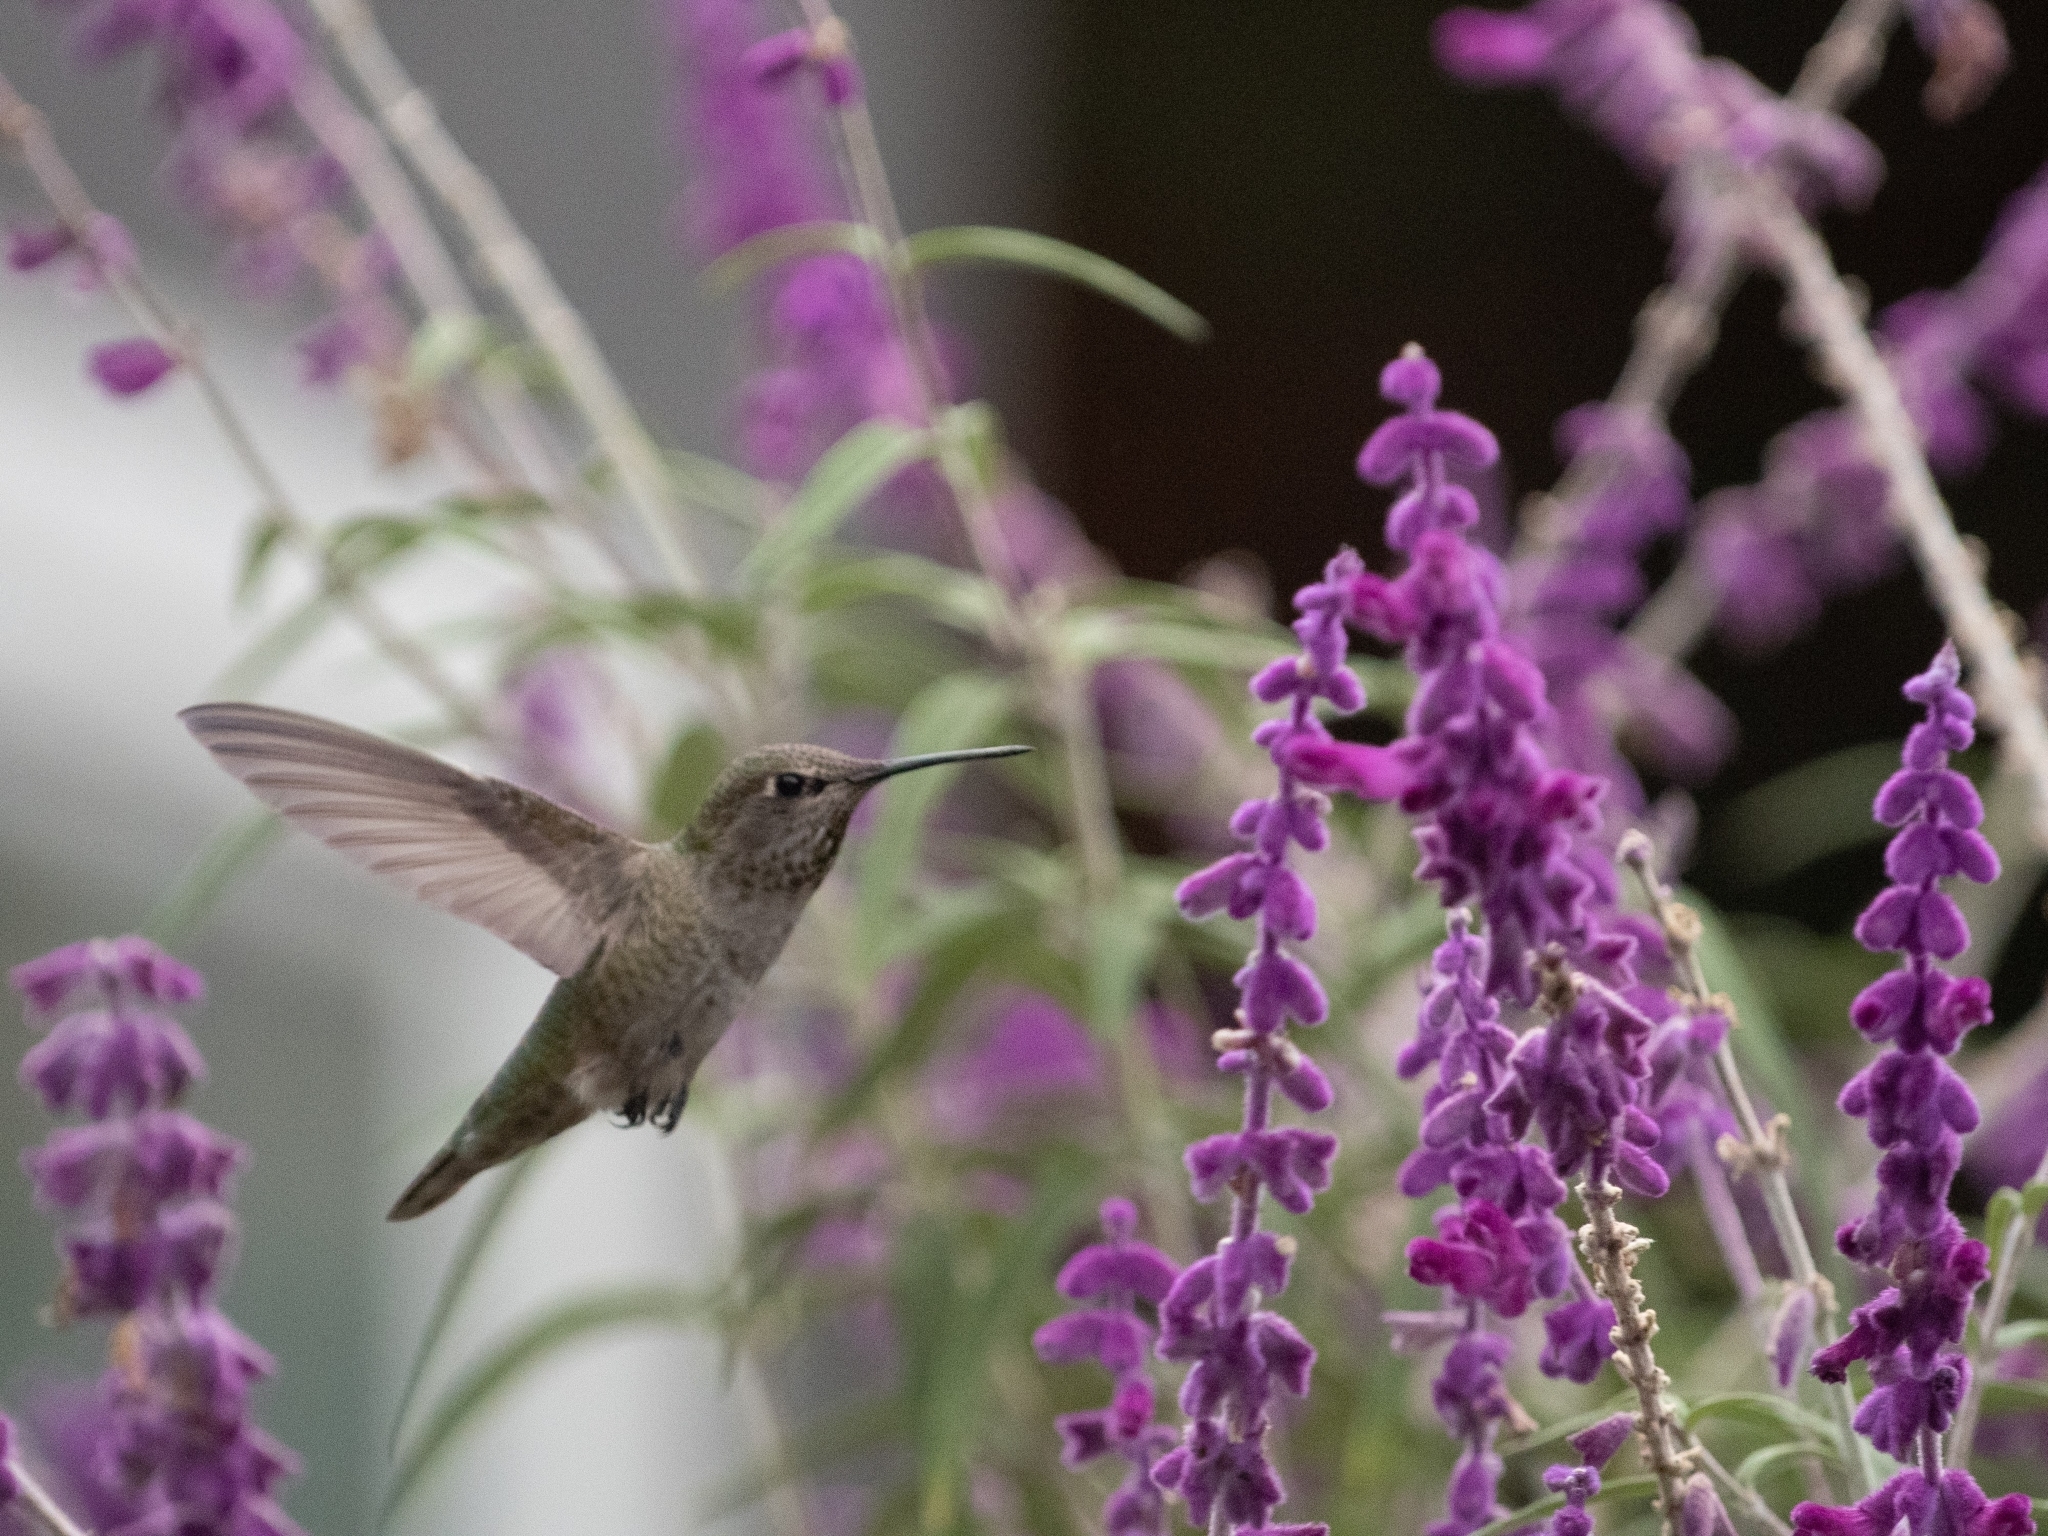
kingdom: Animalia
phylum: Chordata
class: Aves
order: Apodiformes
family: Trochilidae
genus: Calypte
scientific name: Calypte anna
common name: Anna's hummingbird
